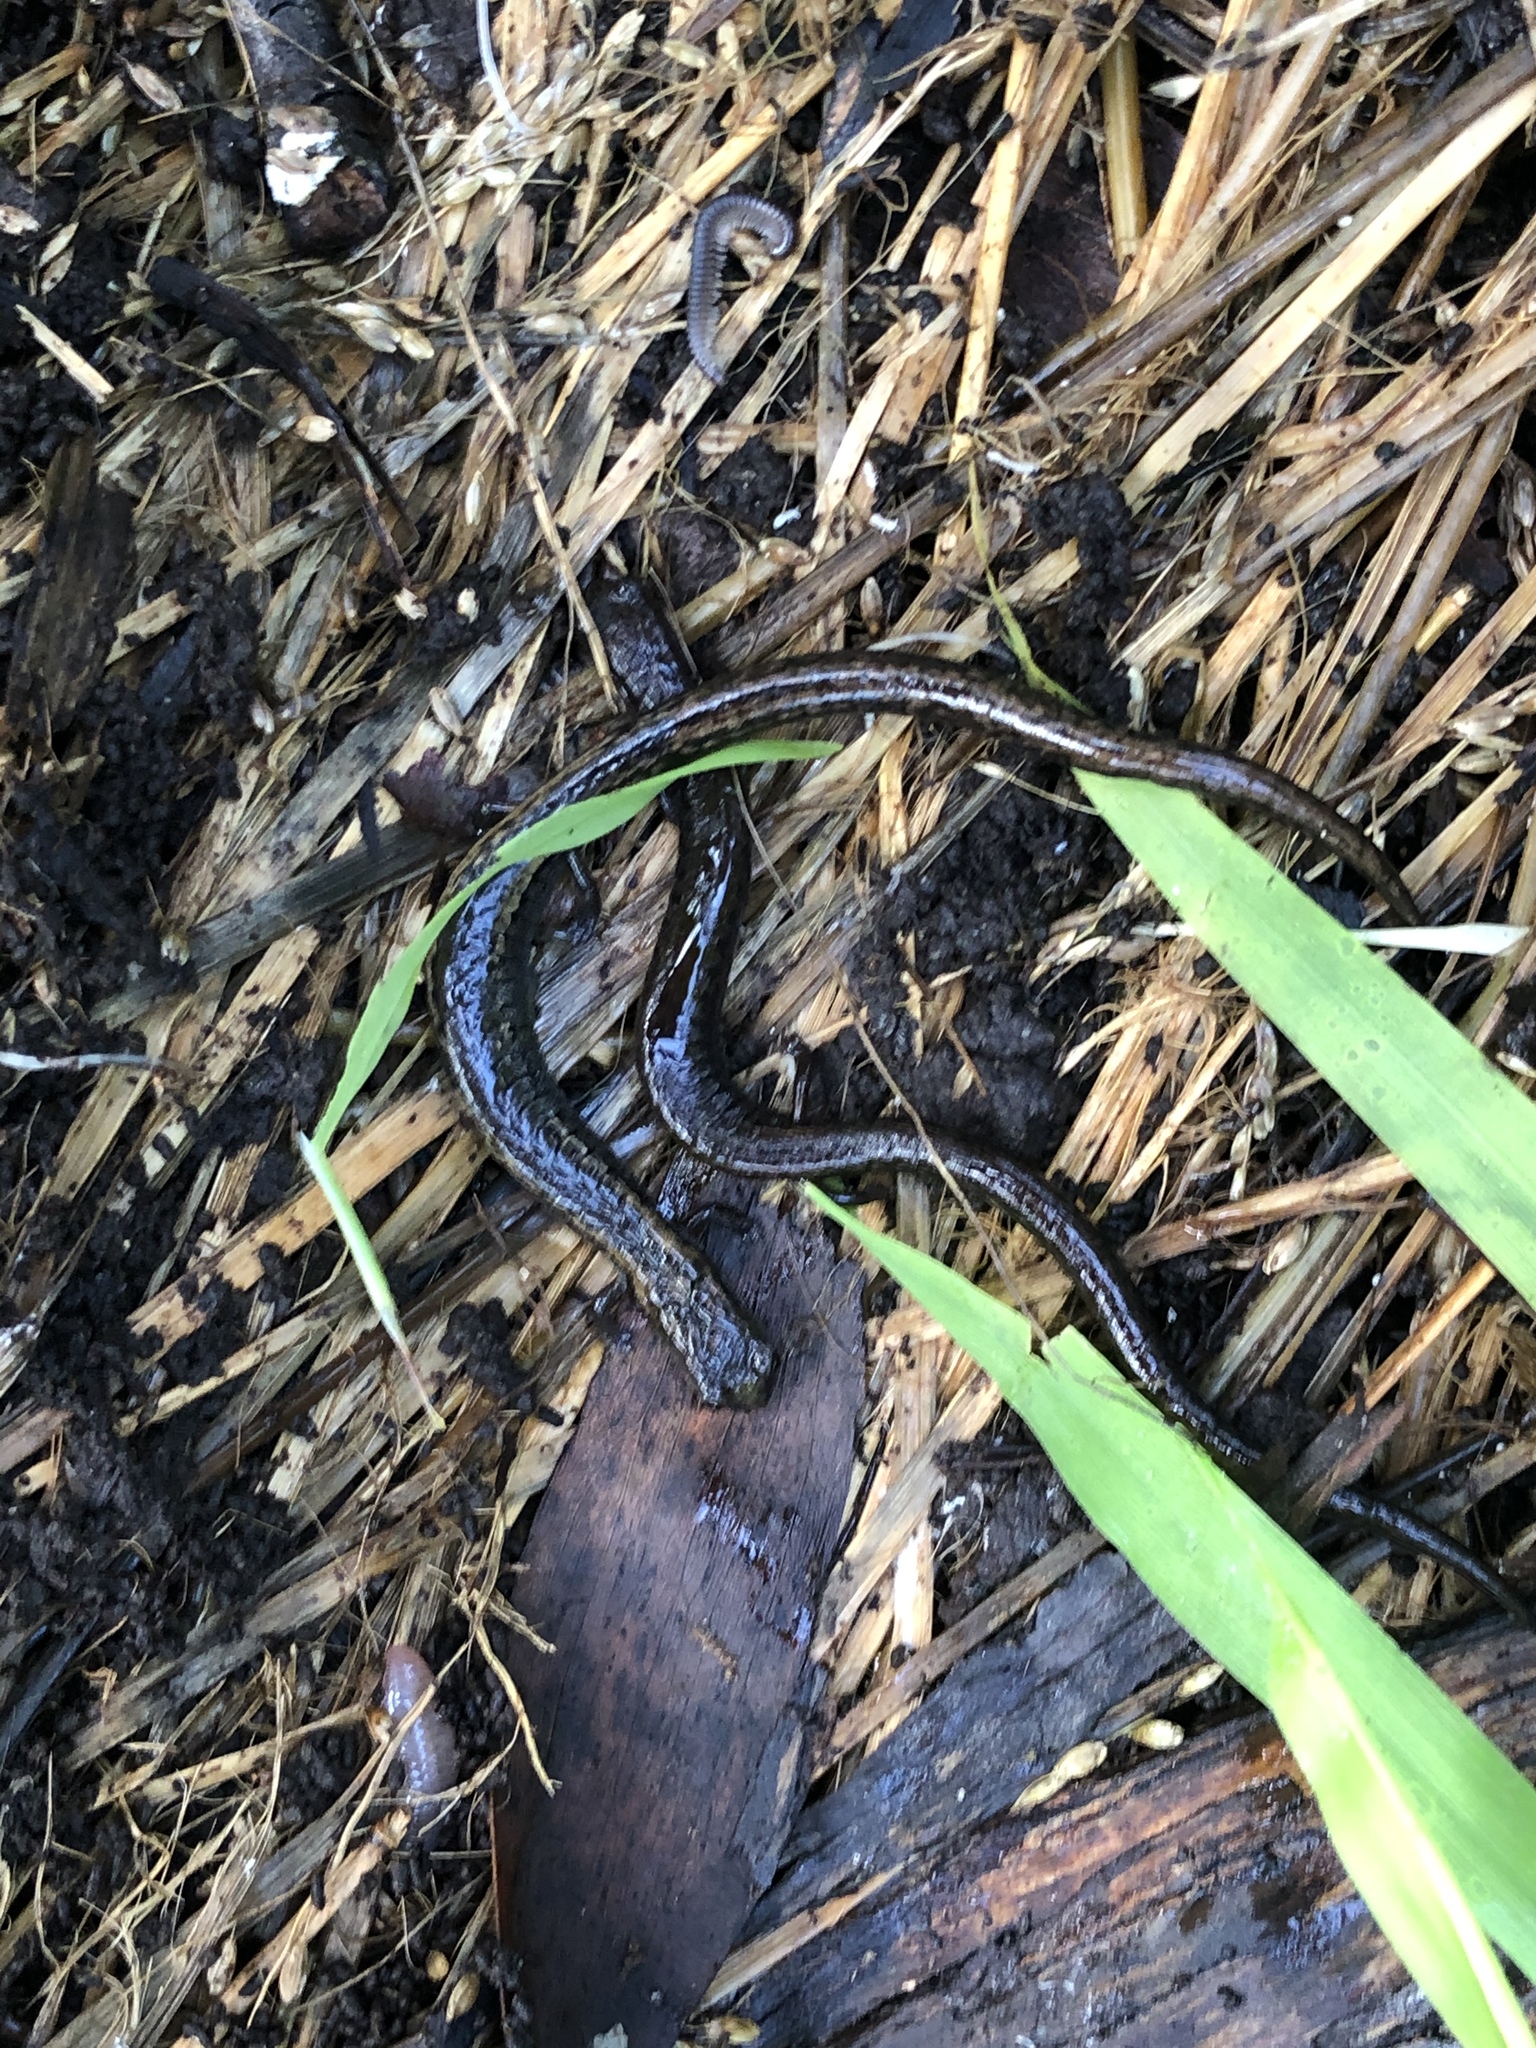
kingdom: Animalia
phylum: Chordata
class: Amphibia
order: Caudata
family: Plethodontidae
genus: Batrachoseps
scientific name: Batrachoseps attenuatus
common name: California slender salamander
